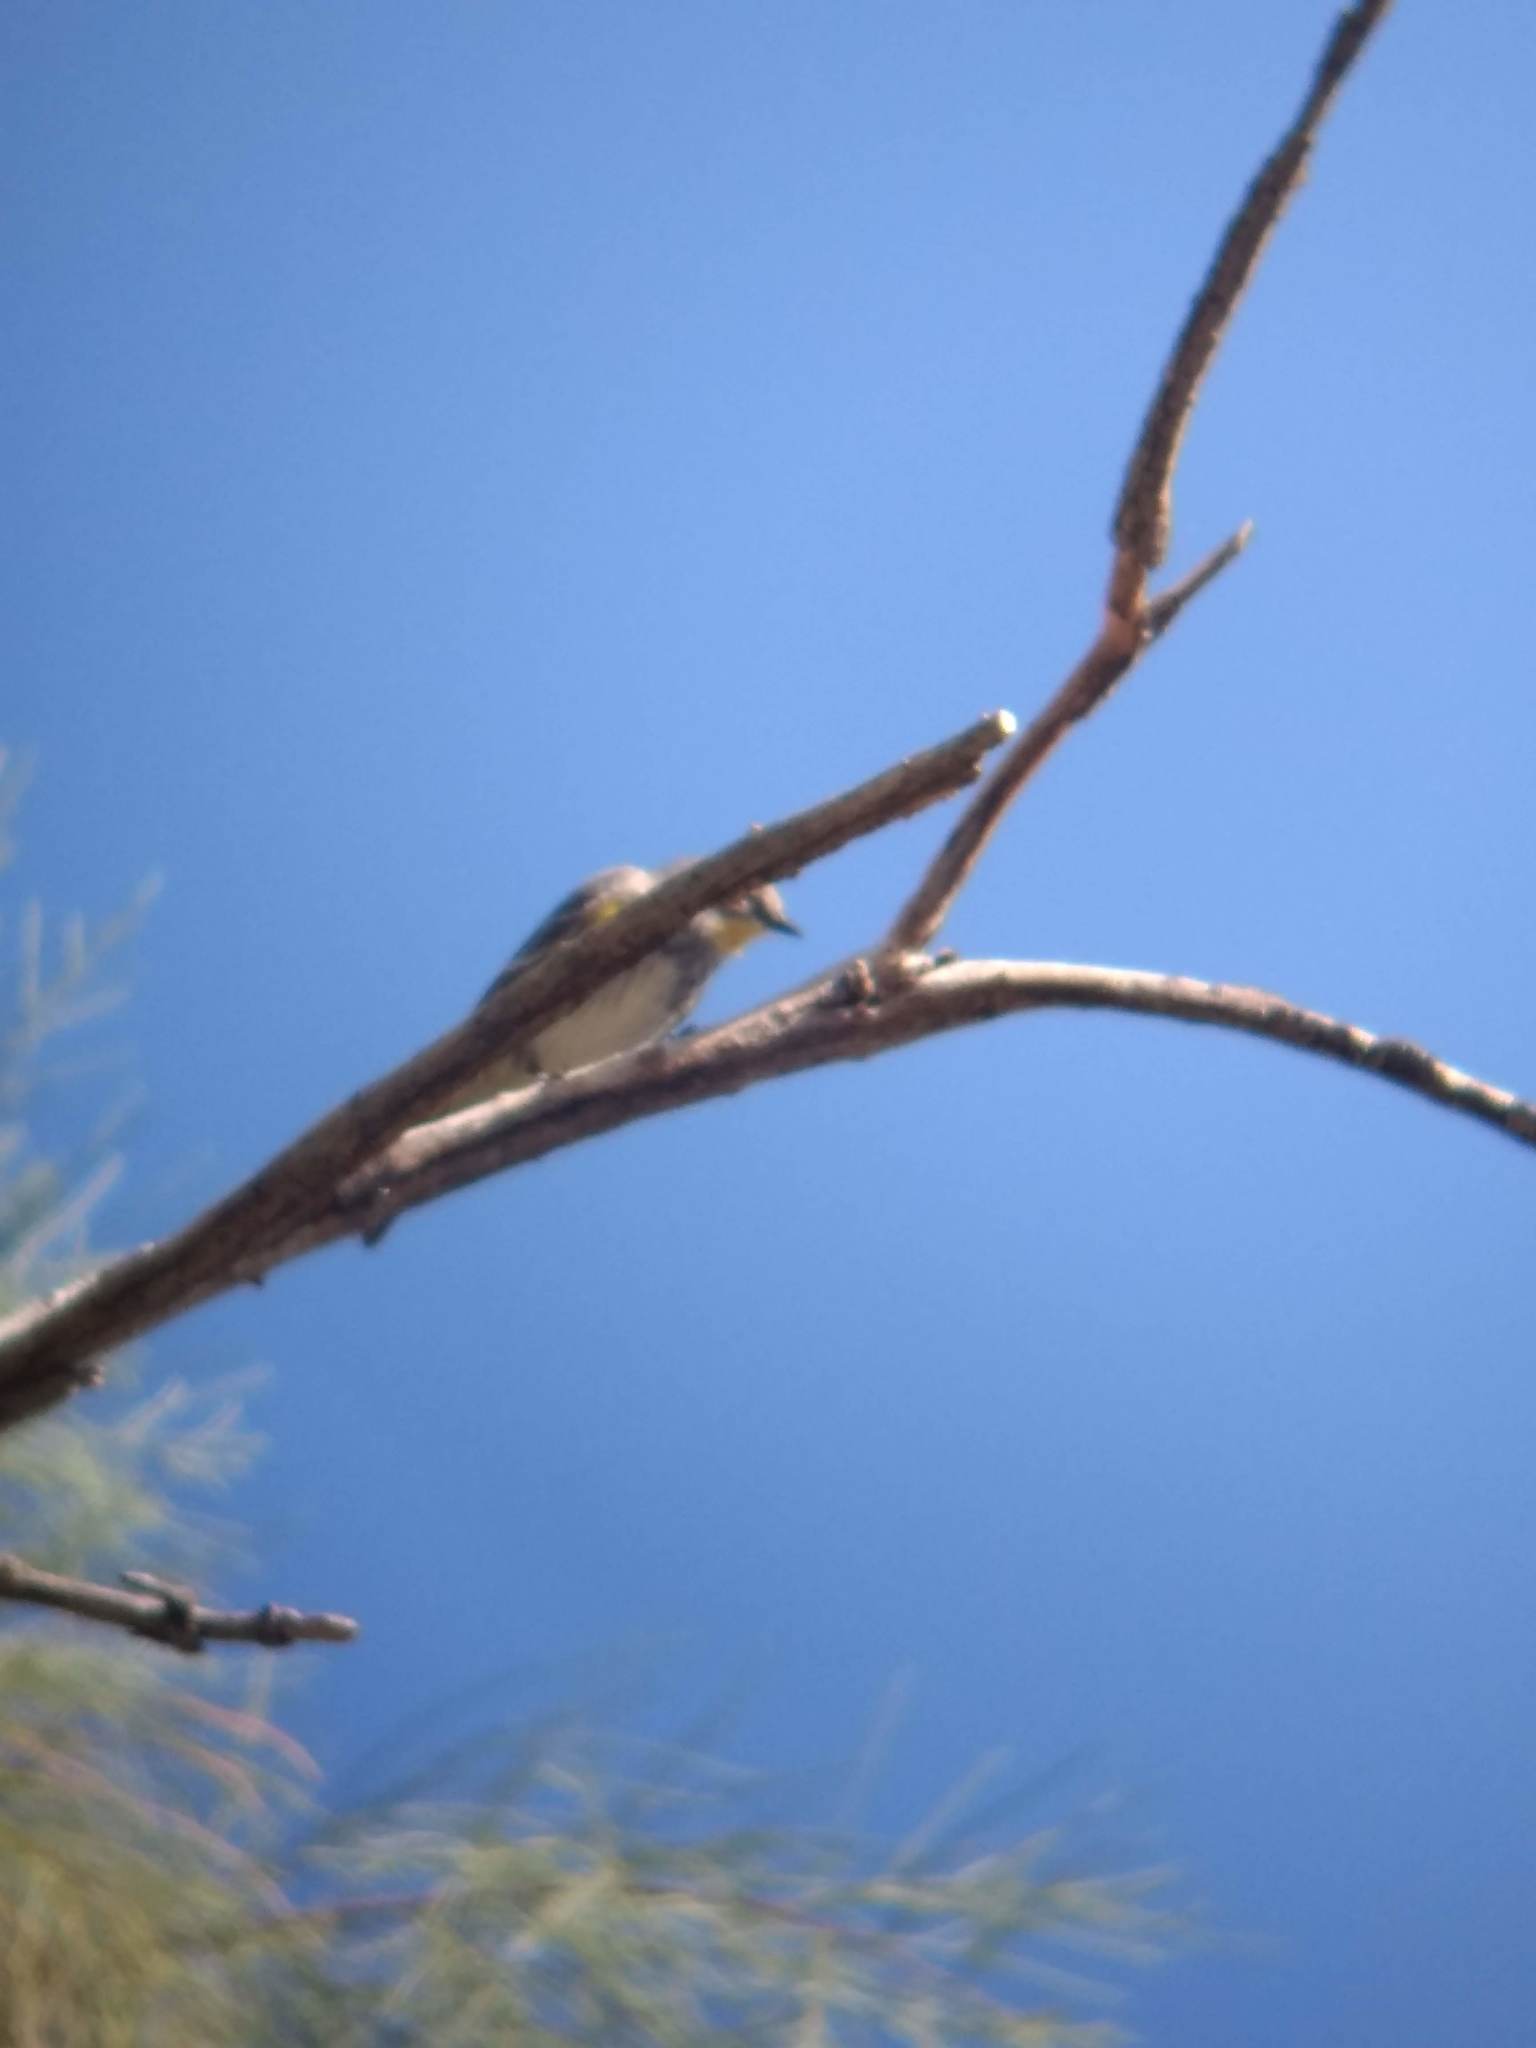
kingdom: Animalia
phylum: Chordata
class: Aves
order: Passeriformes
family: Parulidae
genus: Setophaga
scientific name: Setophaga coronata
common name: Myrtle warbler
